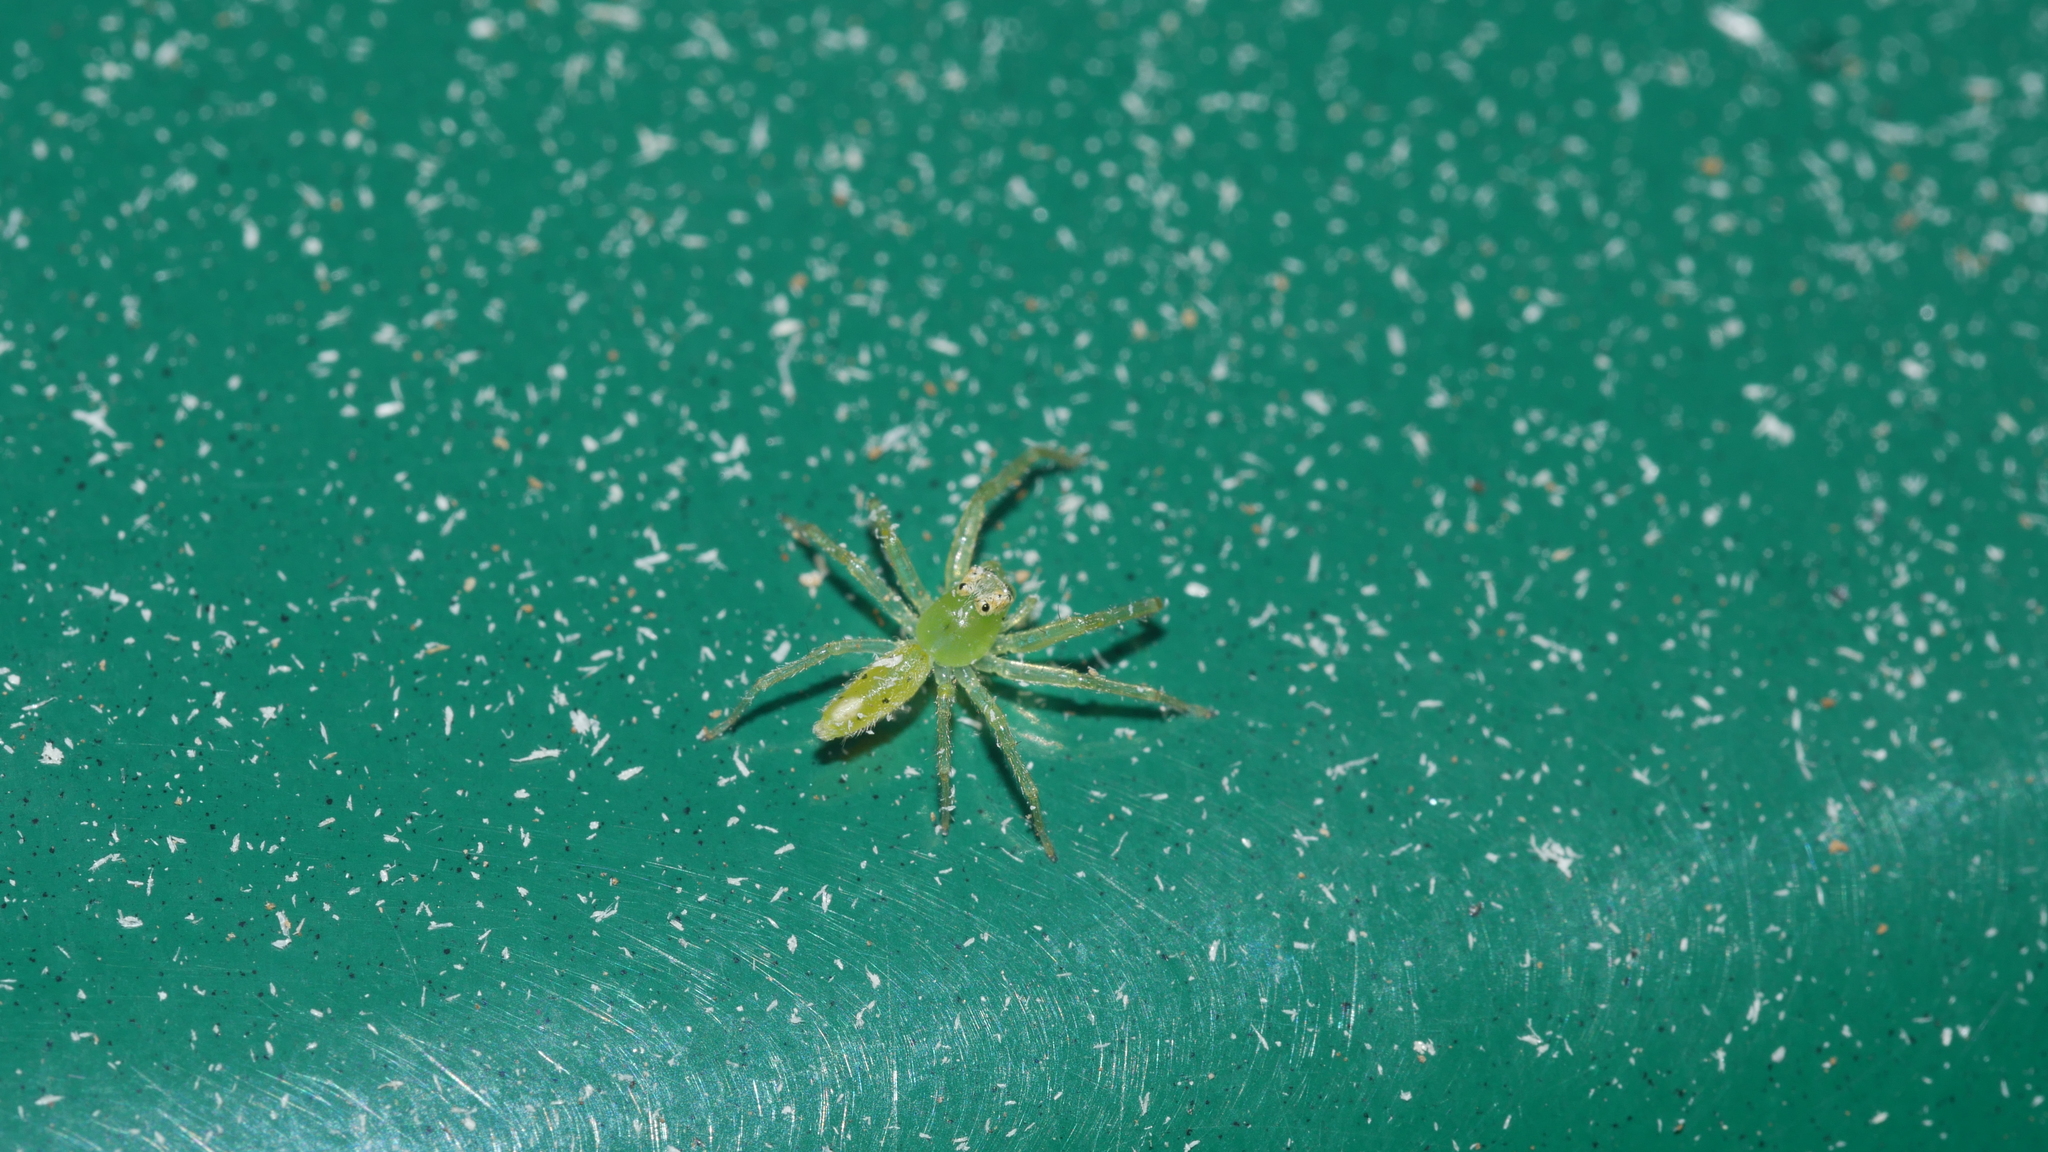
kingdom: Animalia
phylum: Arthropoda
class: Arachnida
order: Araneae
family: Salticidae
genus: Lyssomanes
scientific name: Lyssomanes viridis
